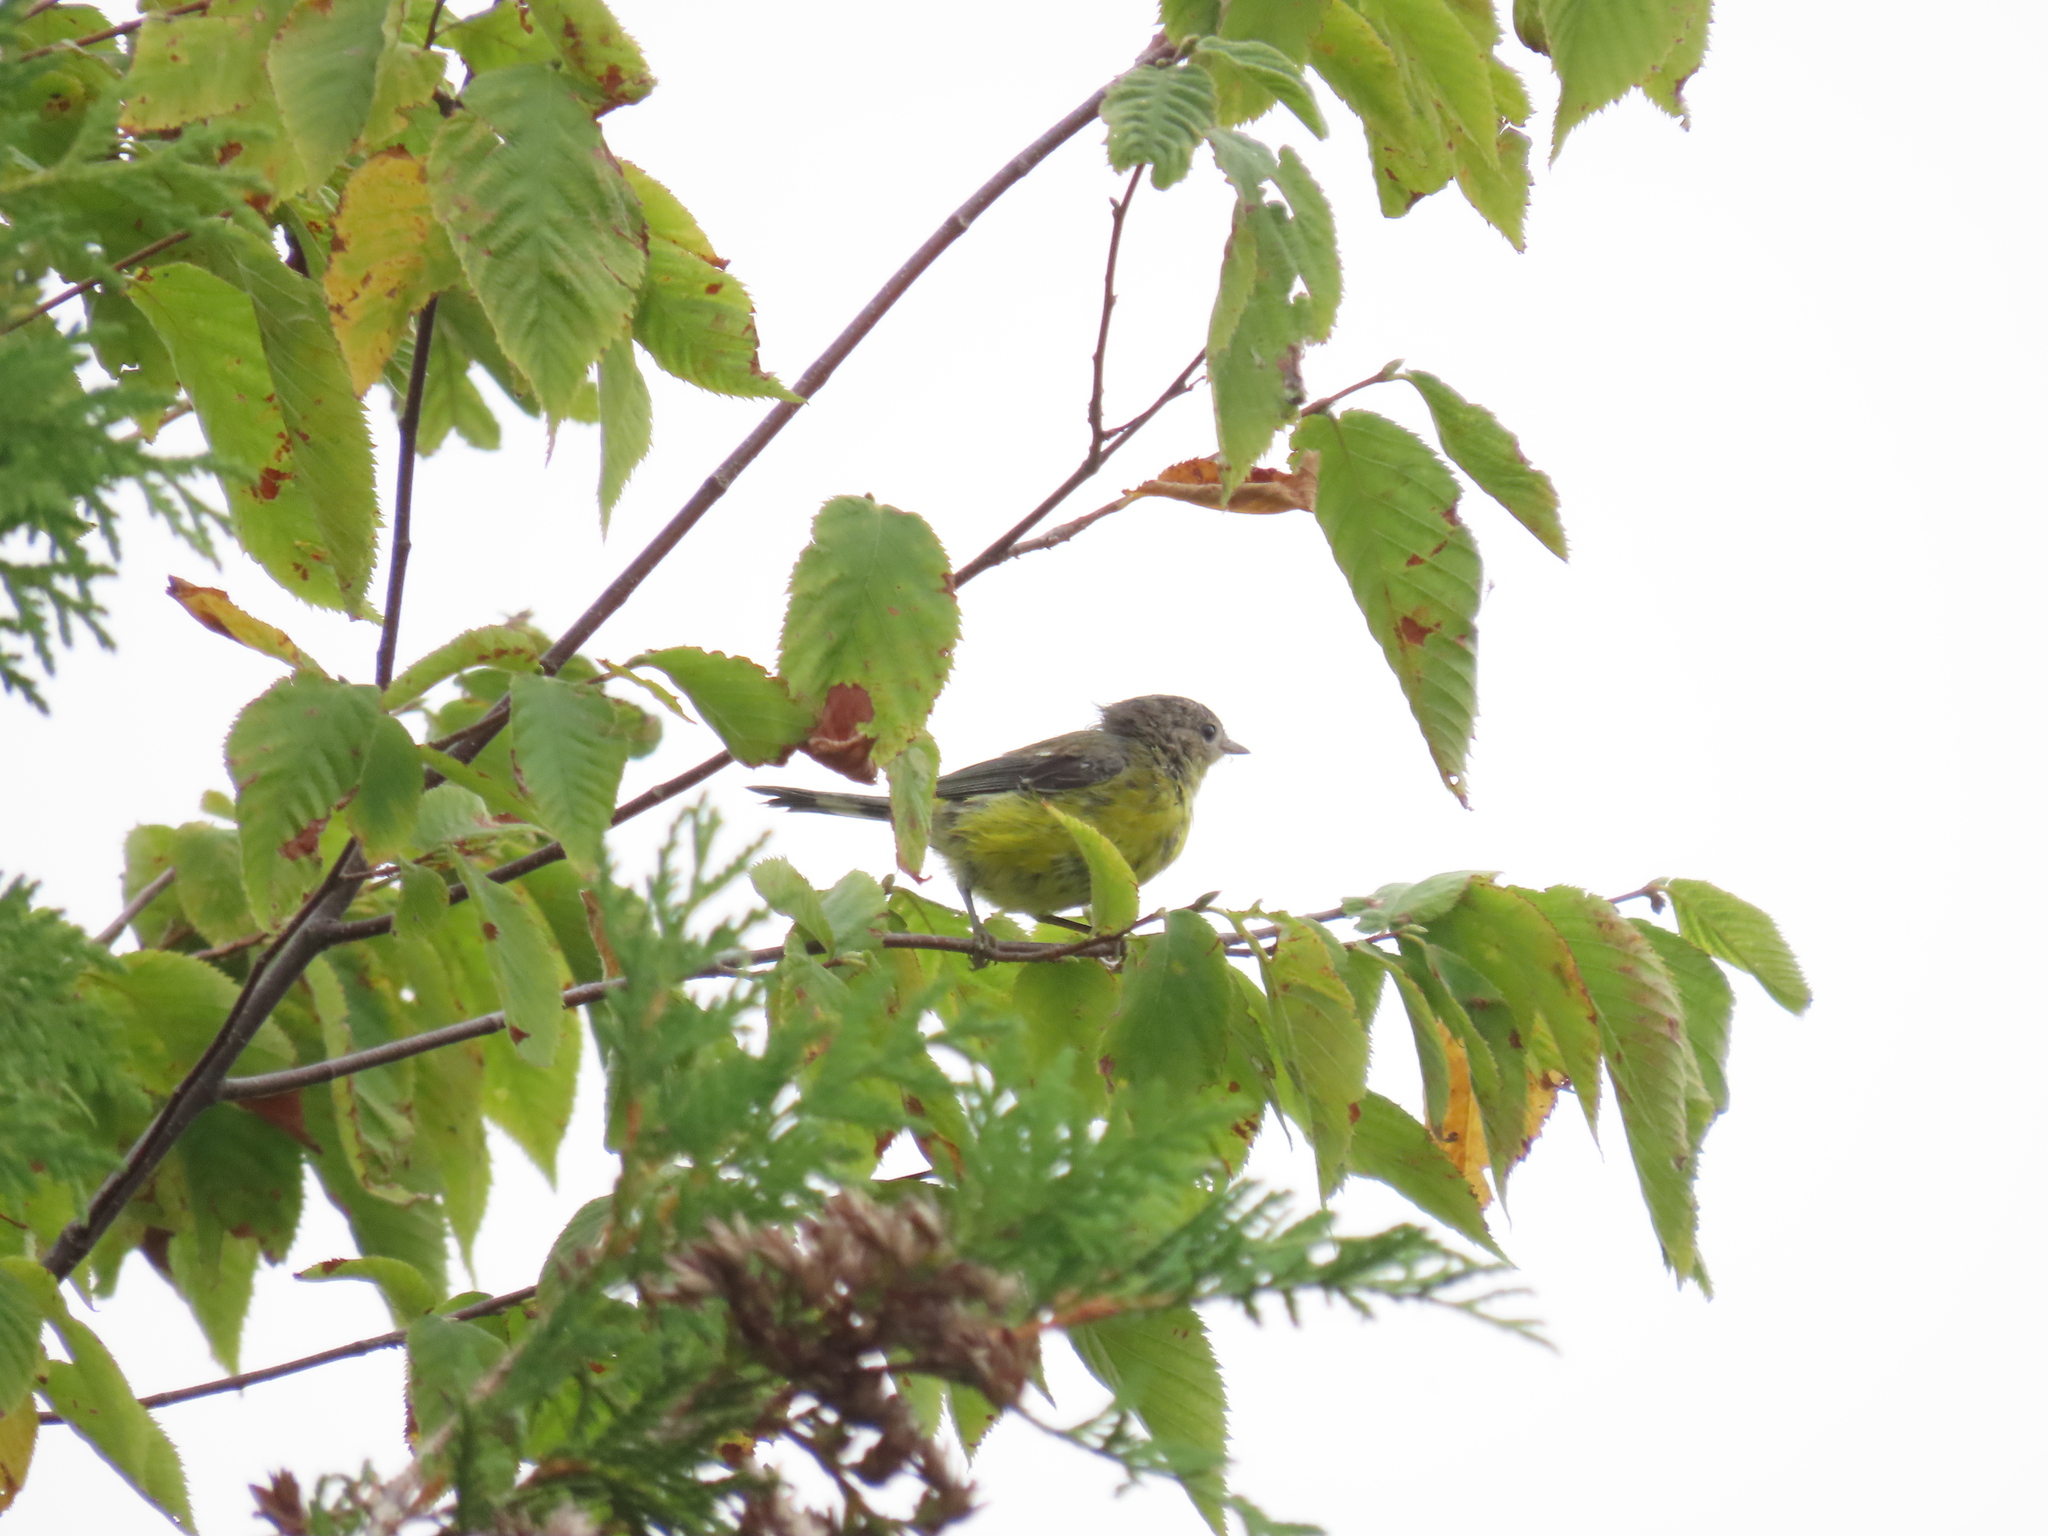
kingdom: Animalia
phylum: Chordata
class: Aves
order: Passeriformes
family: Parulidae
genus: Setophaga
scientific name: Setophaga magnolia
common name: Magnolia warbler
